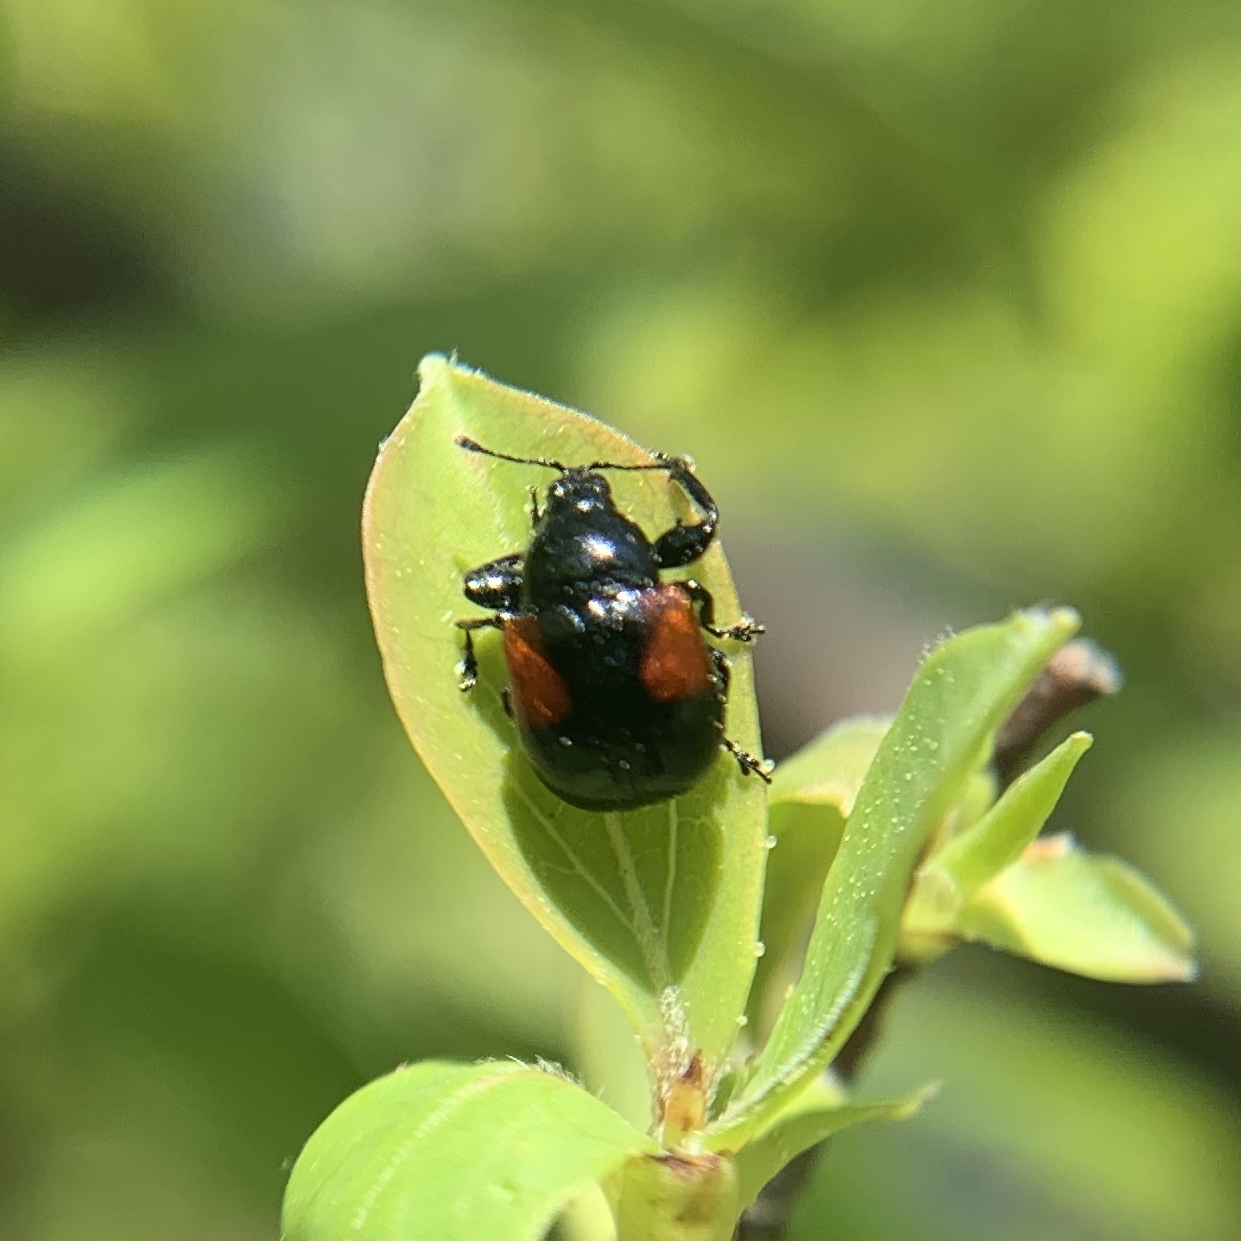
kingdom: Animalia
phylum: Arthropoda
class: Insecta
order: Coleoptera
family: Attelabidae
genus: Attelabus
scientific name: Attelabus bipustulatus
